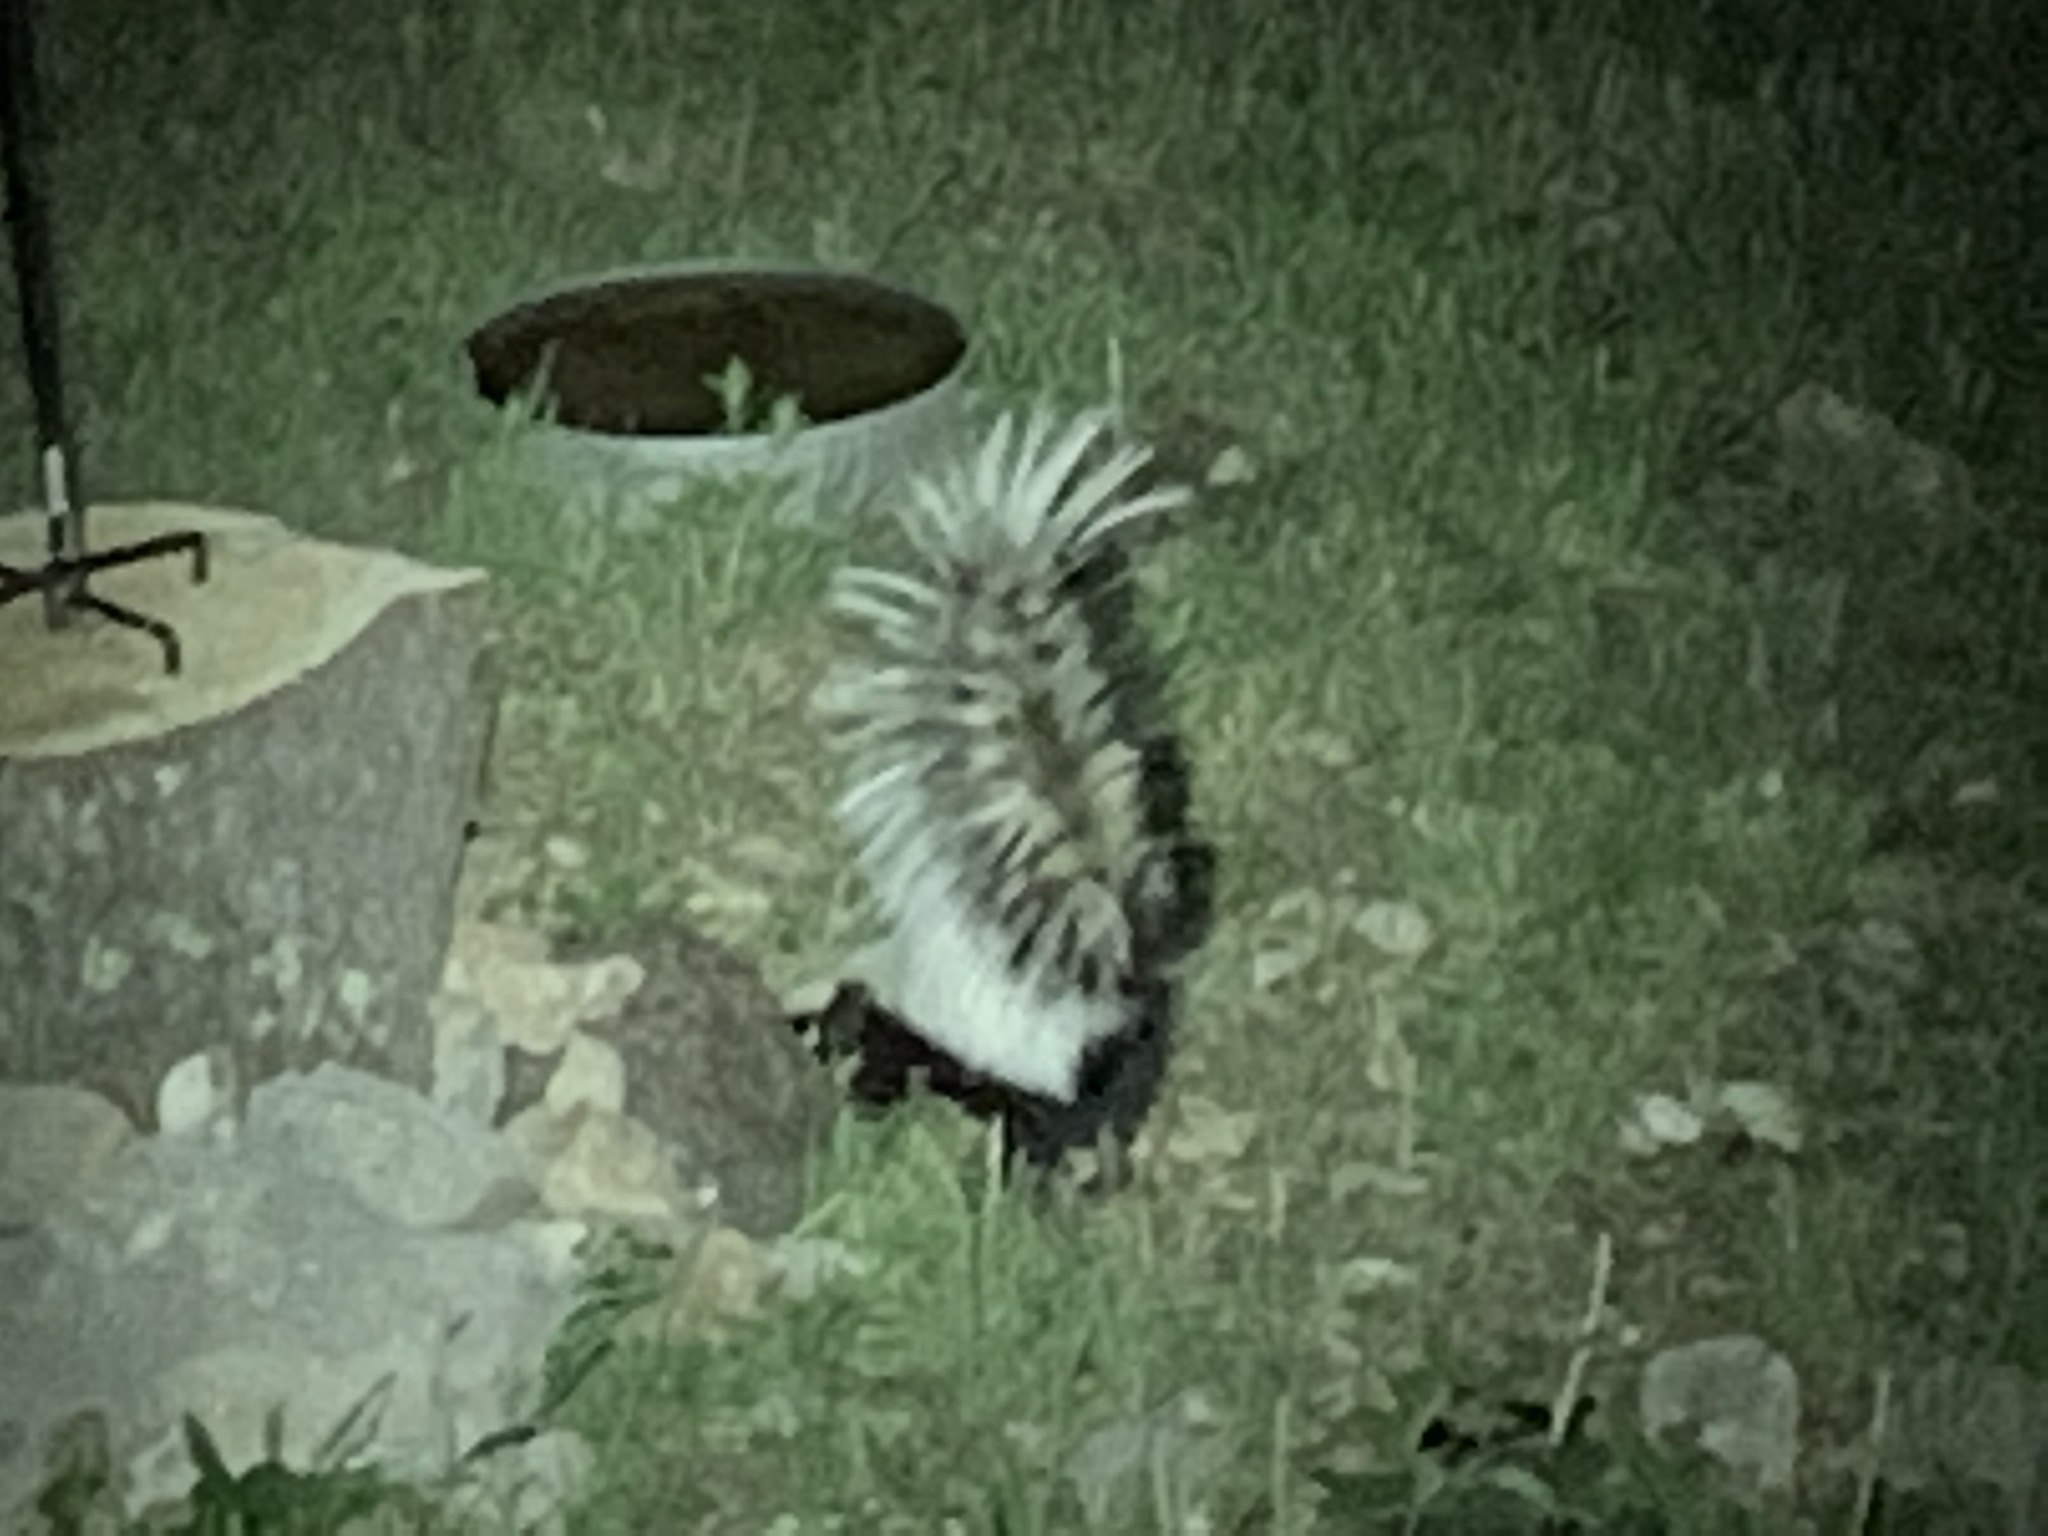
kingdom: Animalia
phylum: Chordata
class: Mammalia
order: Carnivora
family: Mephitidae
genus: Mephitis
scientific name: Mephitis mephitis
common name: Striped skunk
